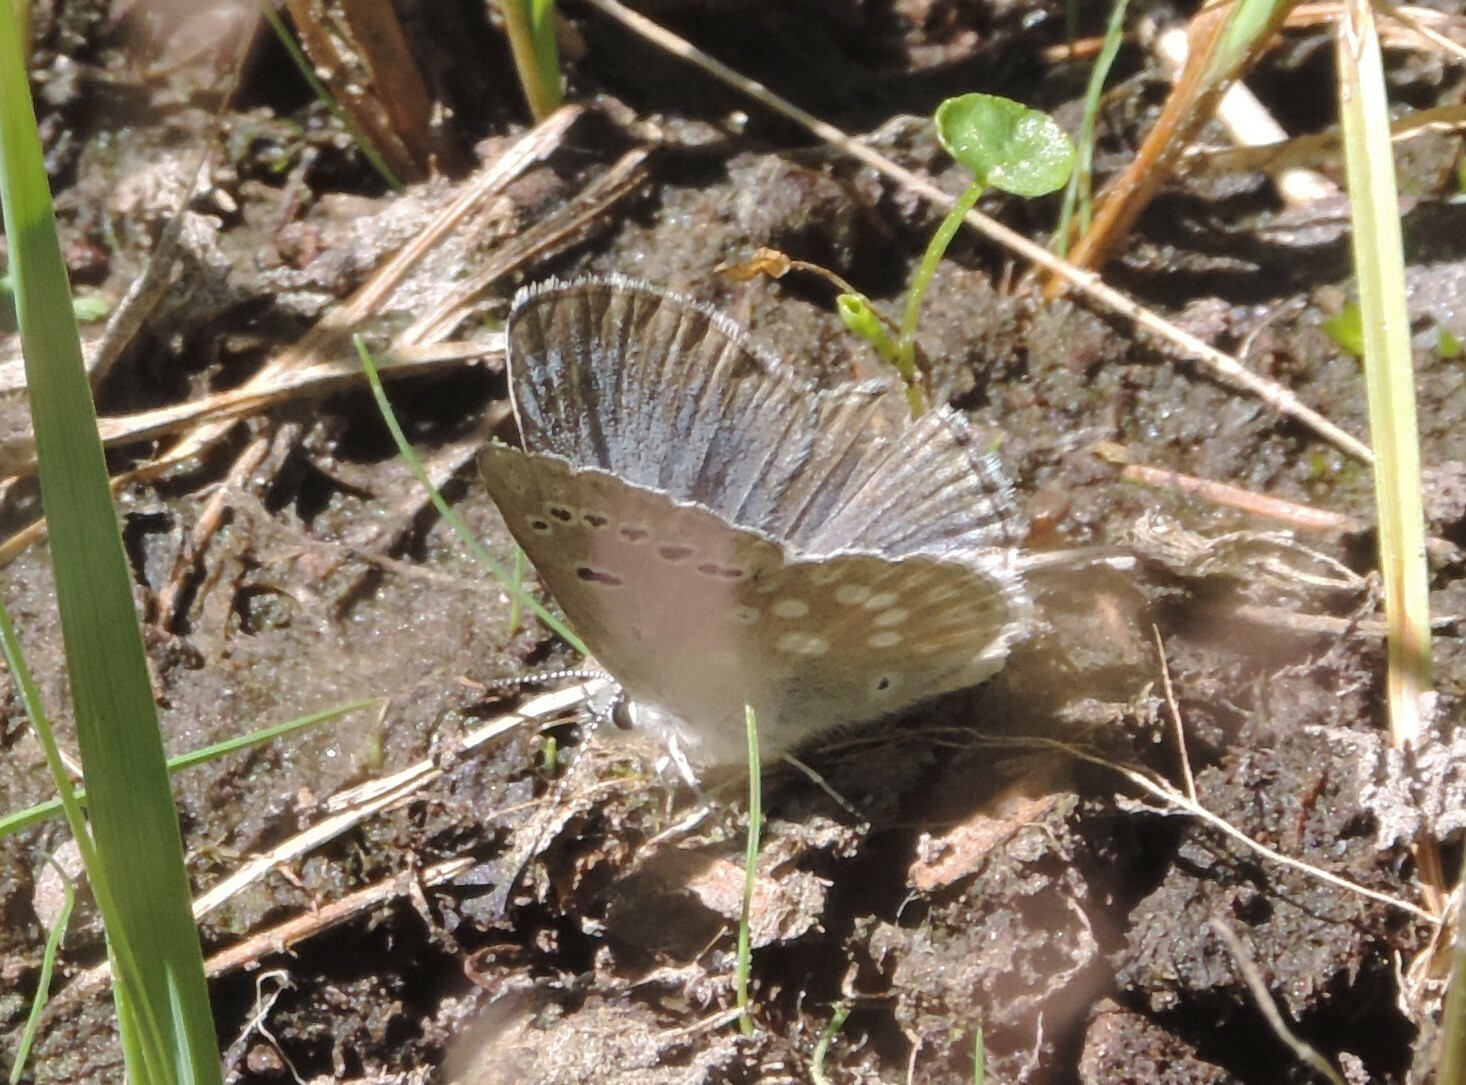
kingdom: Animalia
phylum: Arthropoda
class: Insecta
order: Lepidoptera
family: Lycaenidae
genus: Icaricia
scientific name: Icaricia icarioides
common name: Boisduval's blue
